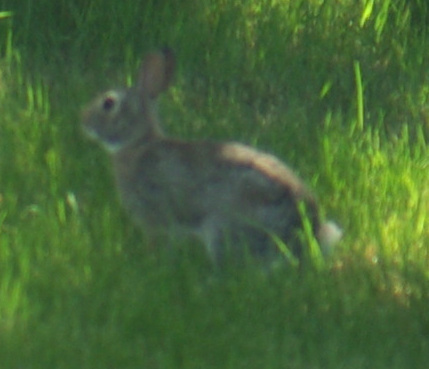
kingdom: Animalia
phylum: Chordata
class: Mammalia
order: Lagomorpha
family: Leporidae
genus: Sylvilagus
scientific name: Sylvilagus floridanus
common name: Eastern cottontail
